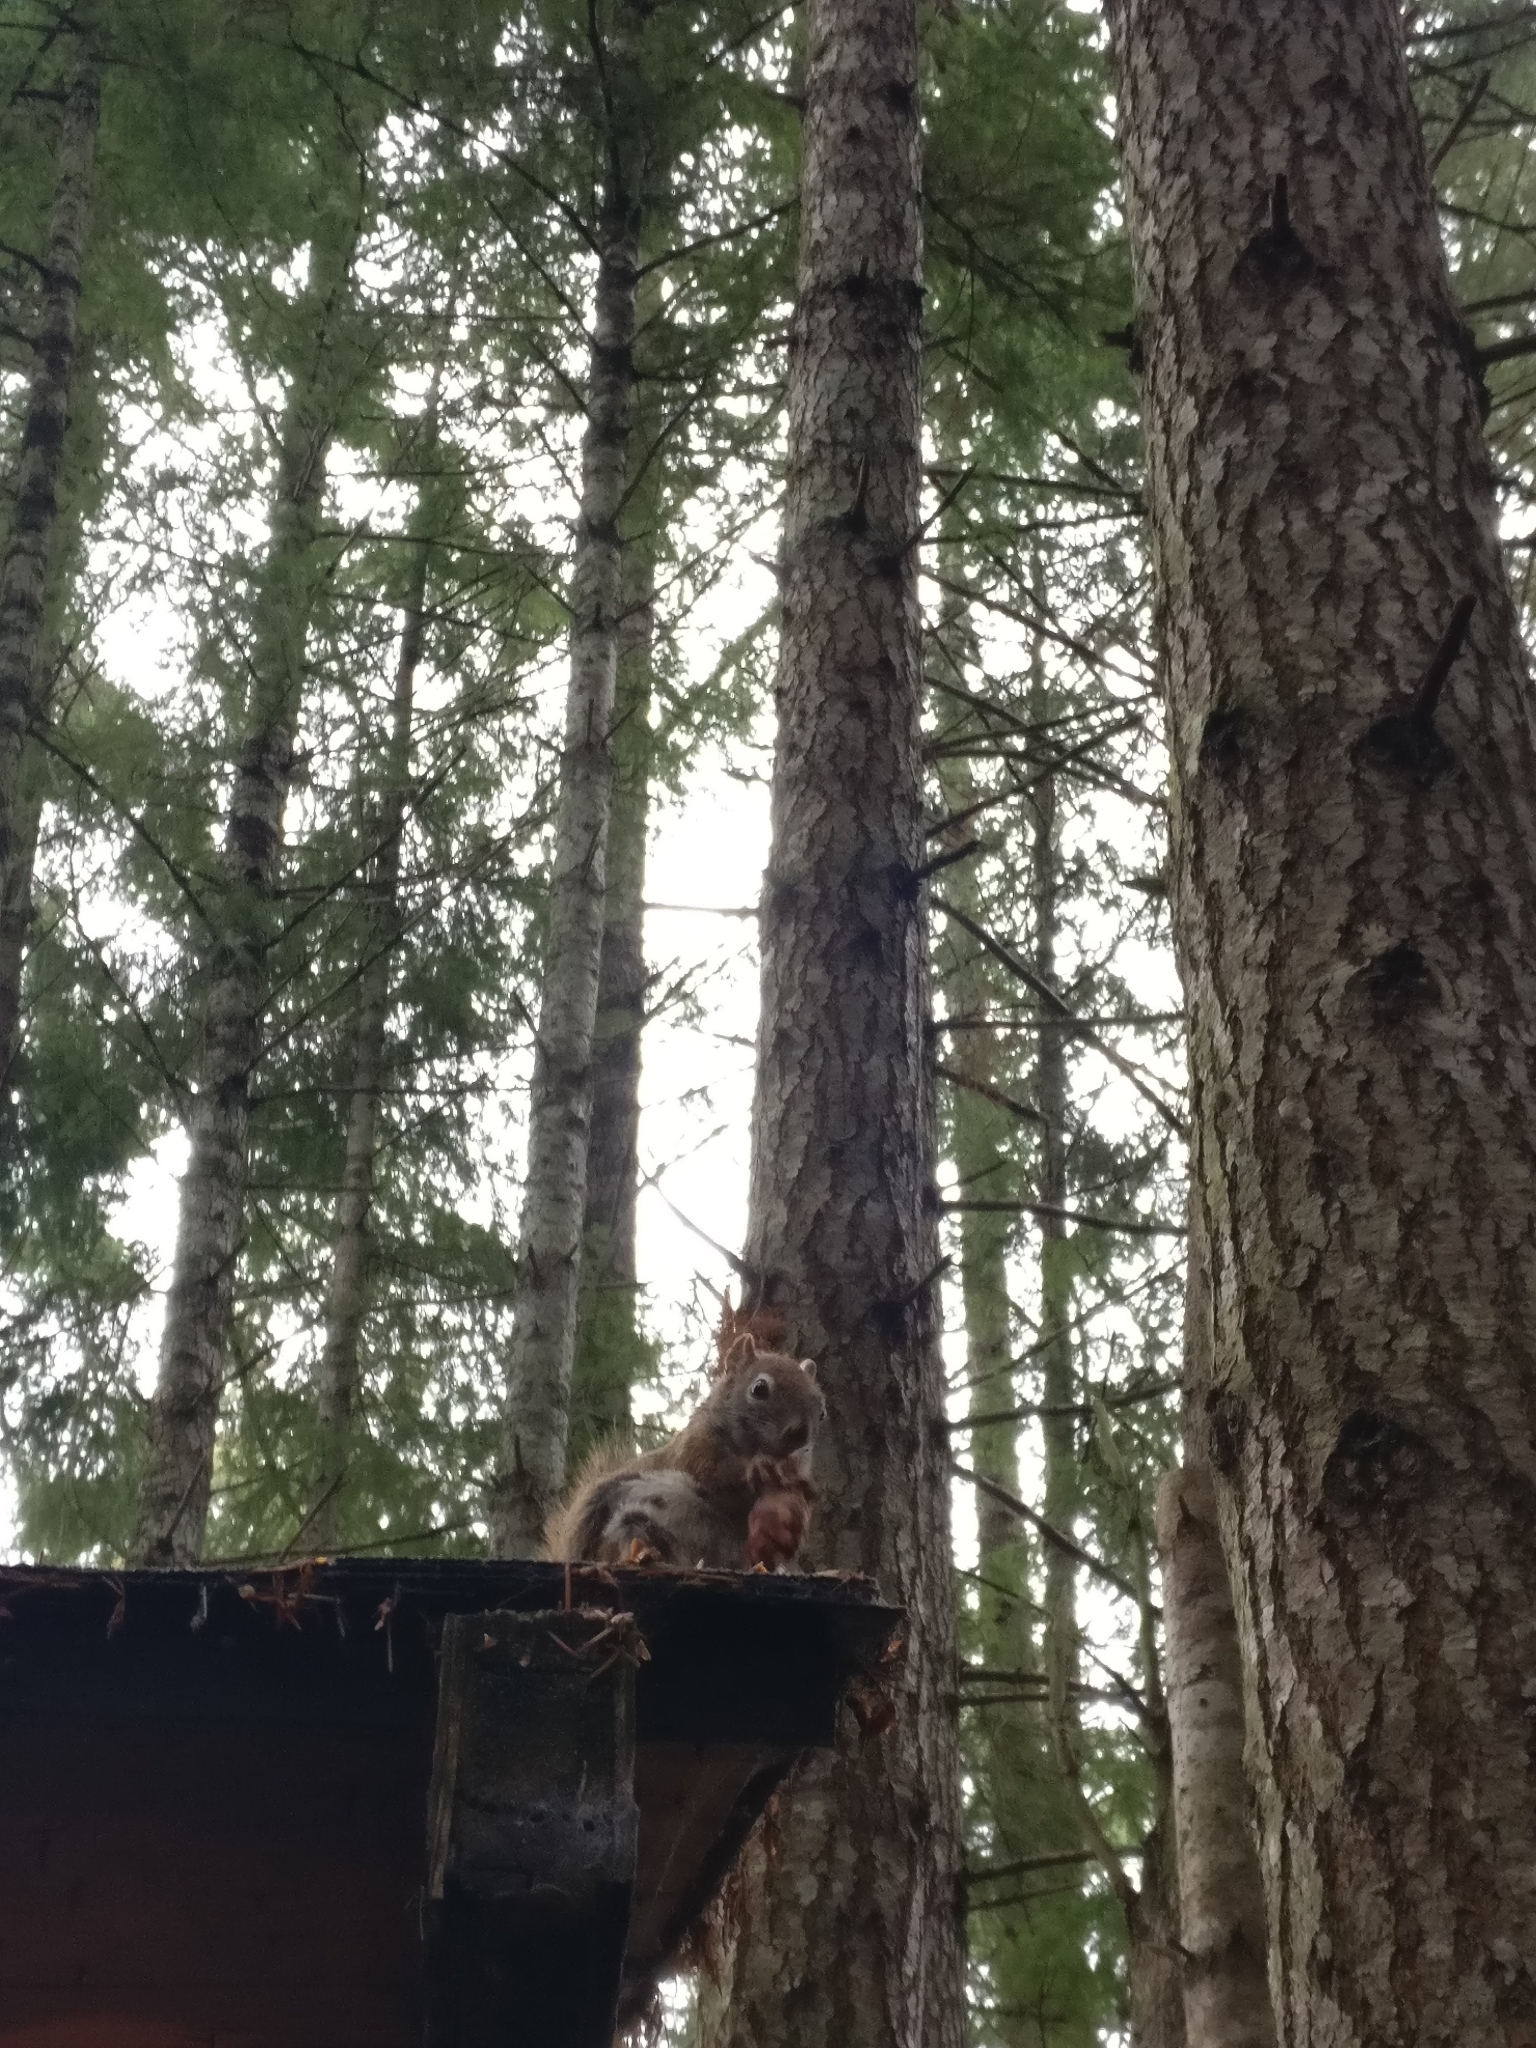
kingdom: Animalia
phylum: Chordata
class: Mammalia
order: Rodentia
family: Sciuridae
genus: Tamiasciurus
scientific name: Tamiasciurus hudsonicus
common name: Red squirrel
